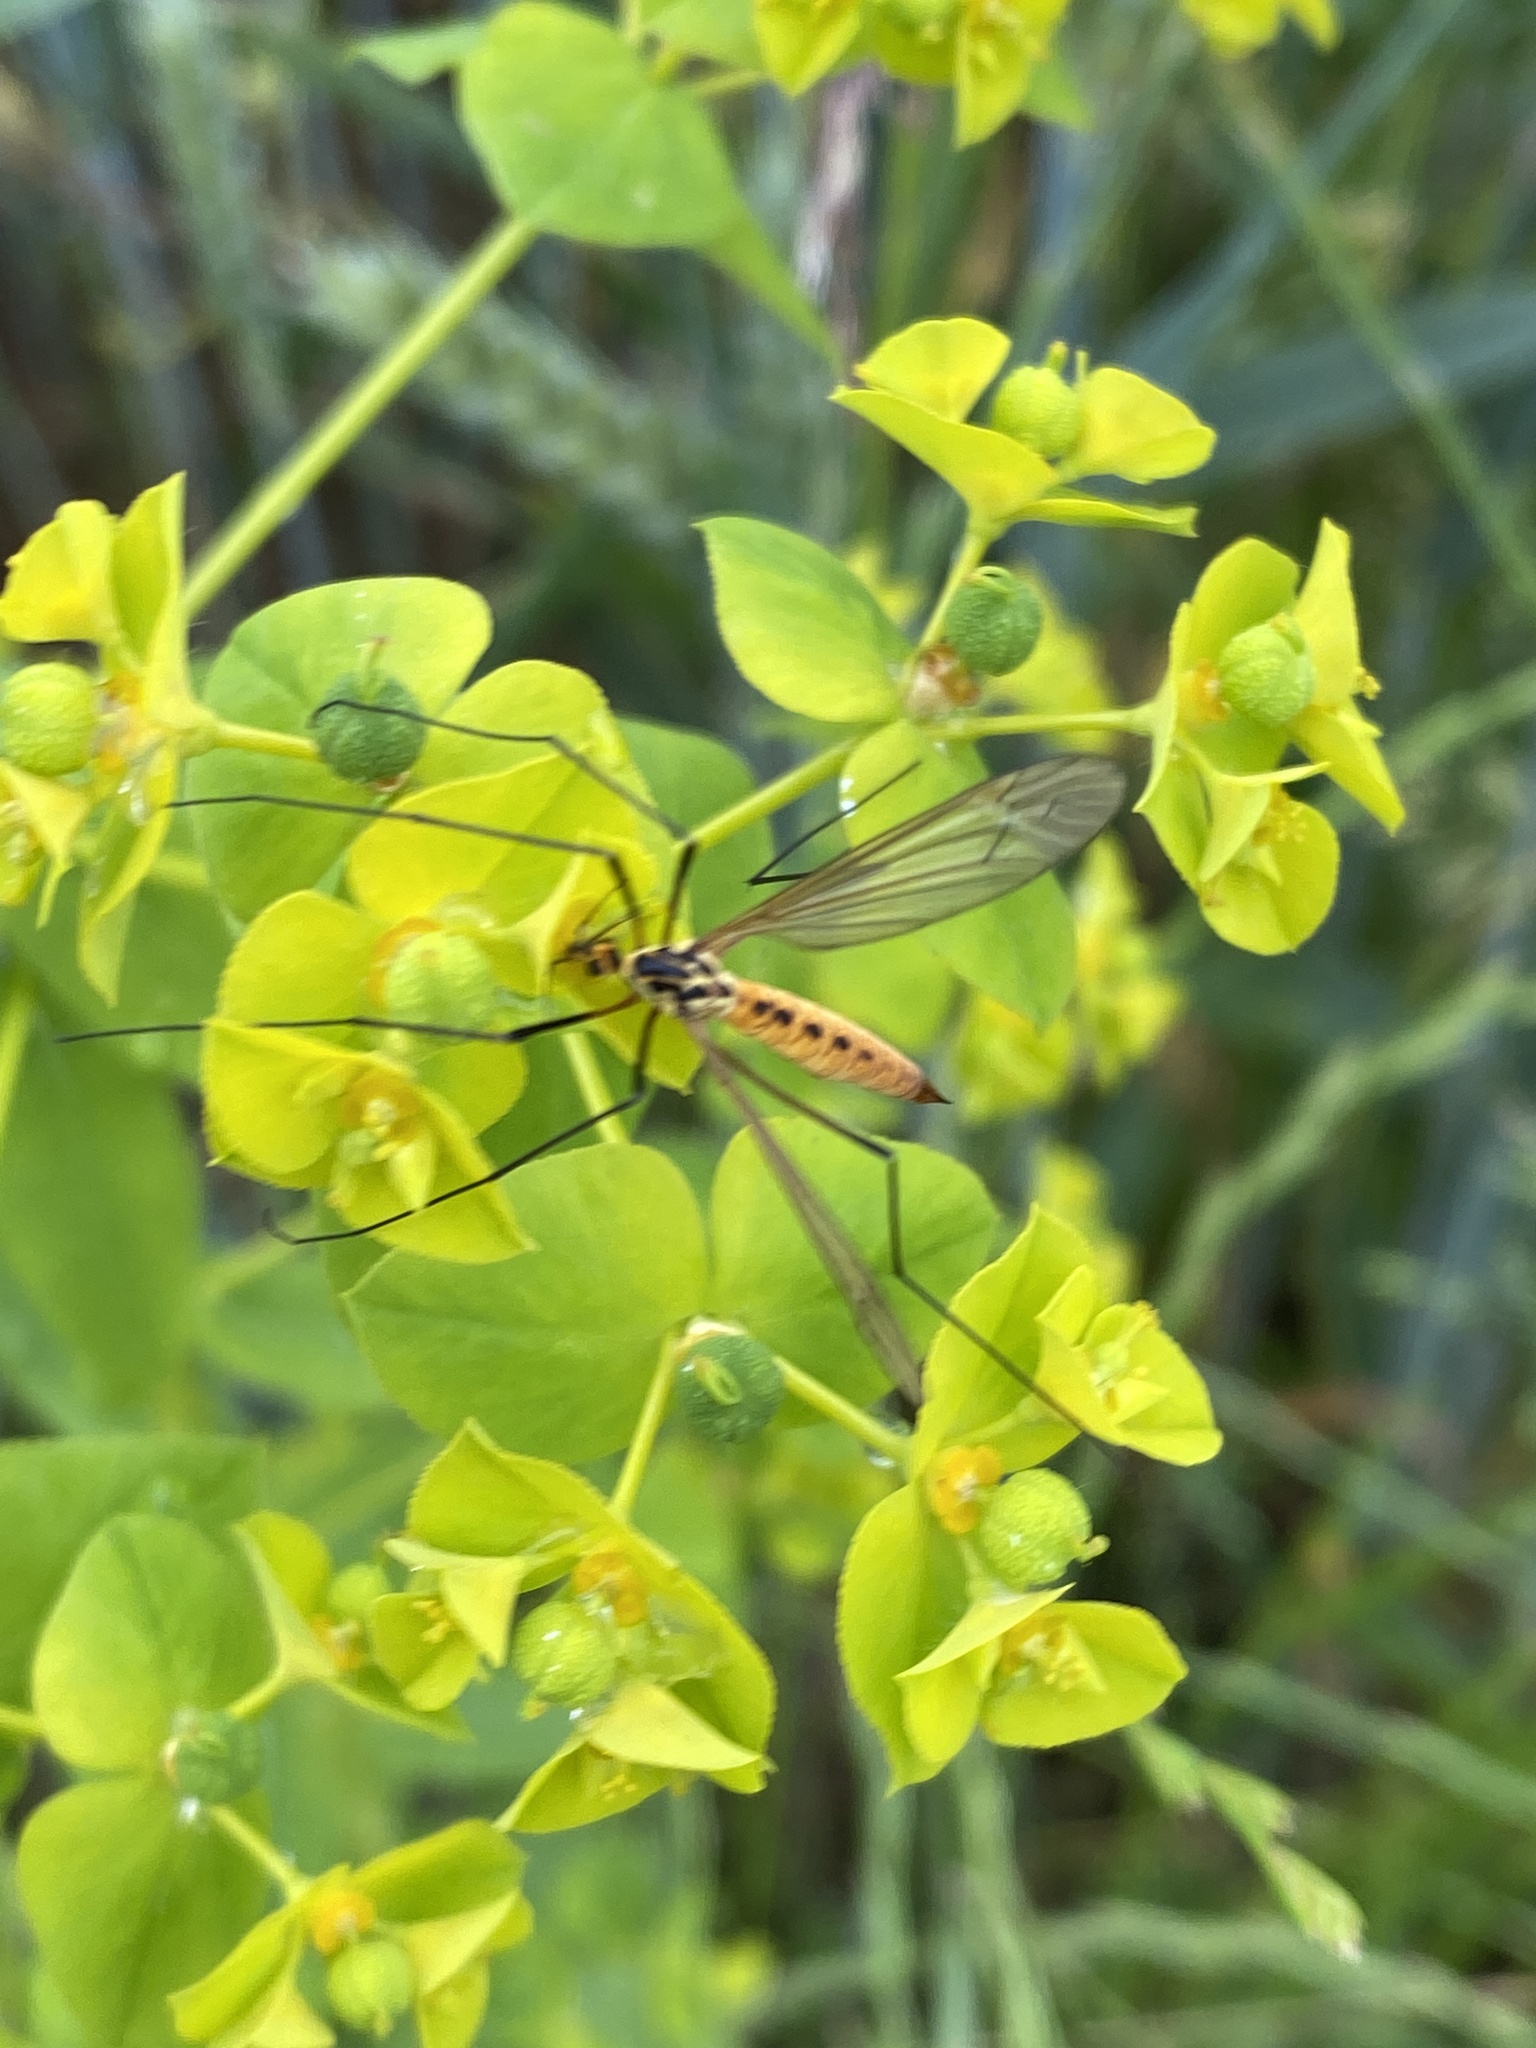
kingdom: Animalia
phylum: Arthropoda
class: Insecta
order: Diptera
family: Tipulidae
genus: Nephrotoma
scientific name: Nephrotoma flavescens
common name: Tiger cranefly
